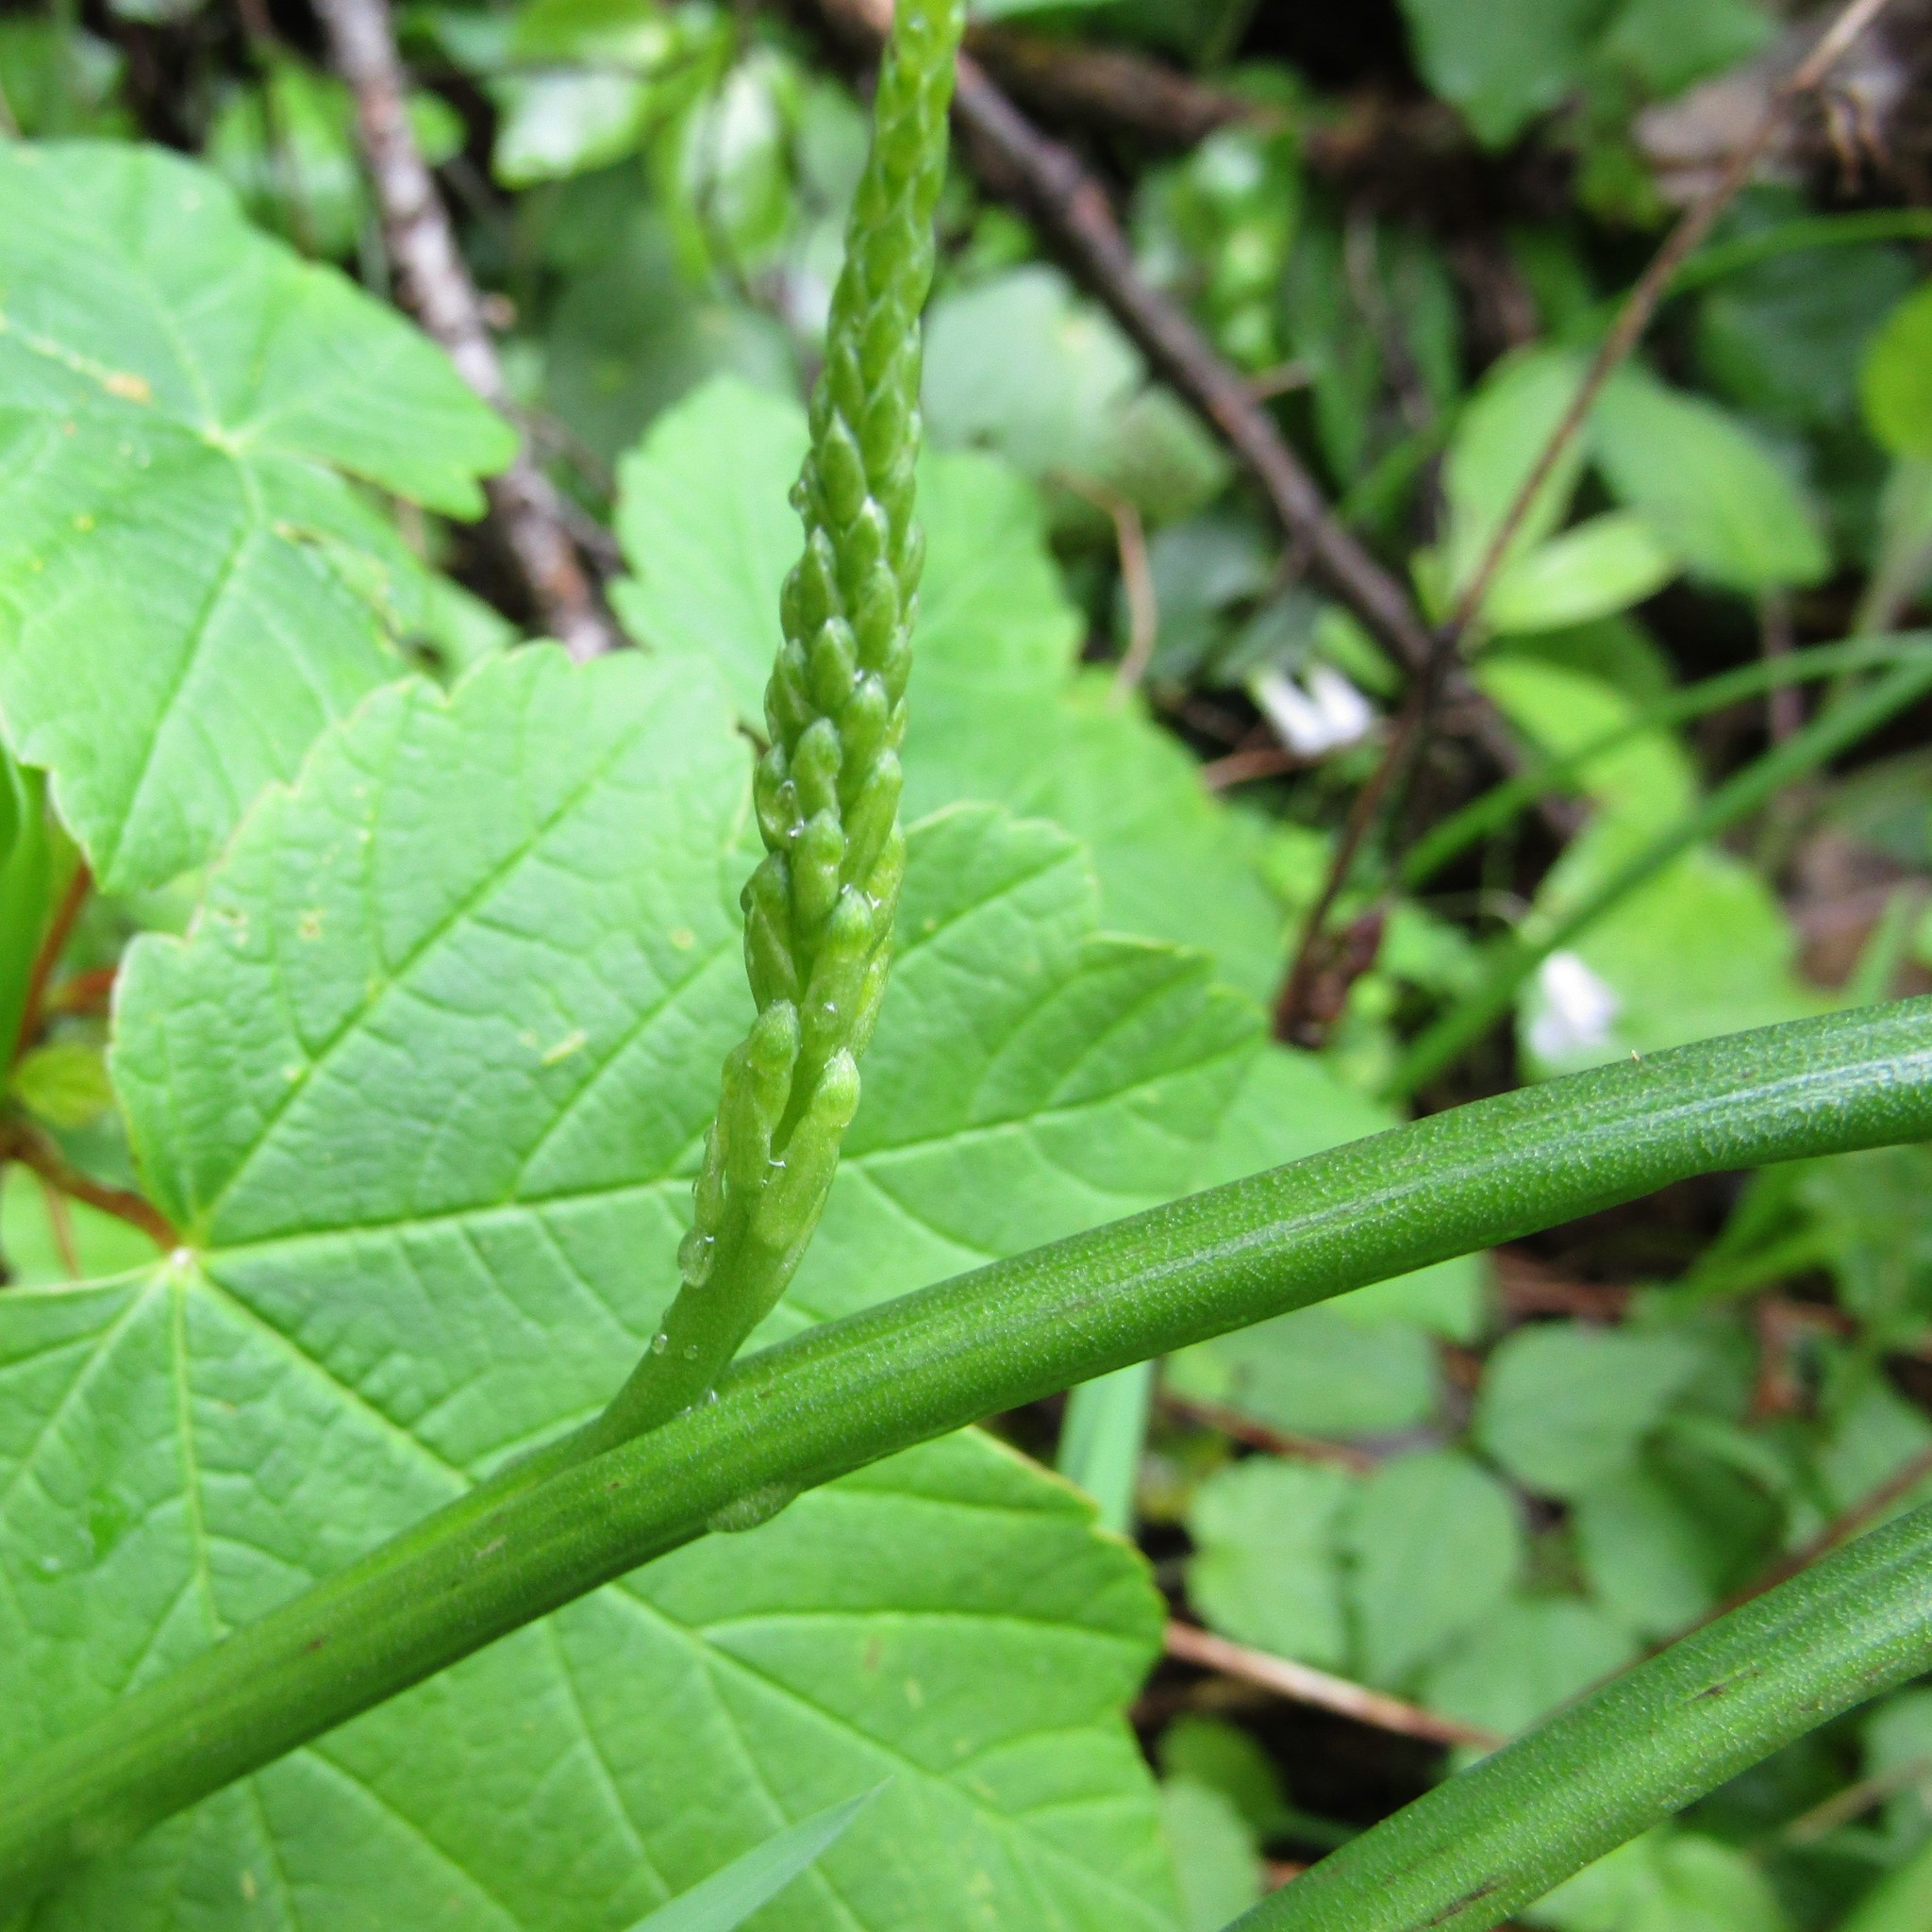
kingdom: Plantae
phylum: Tracheophyta
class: Liliopsida
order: Asparagales
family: Orchidaceae
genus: Microtis
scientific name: Microtis unifolia
